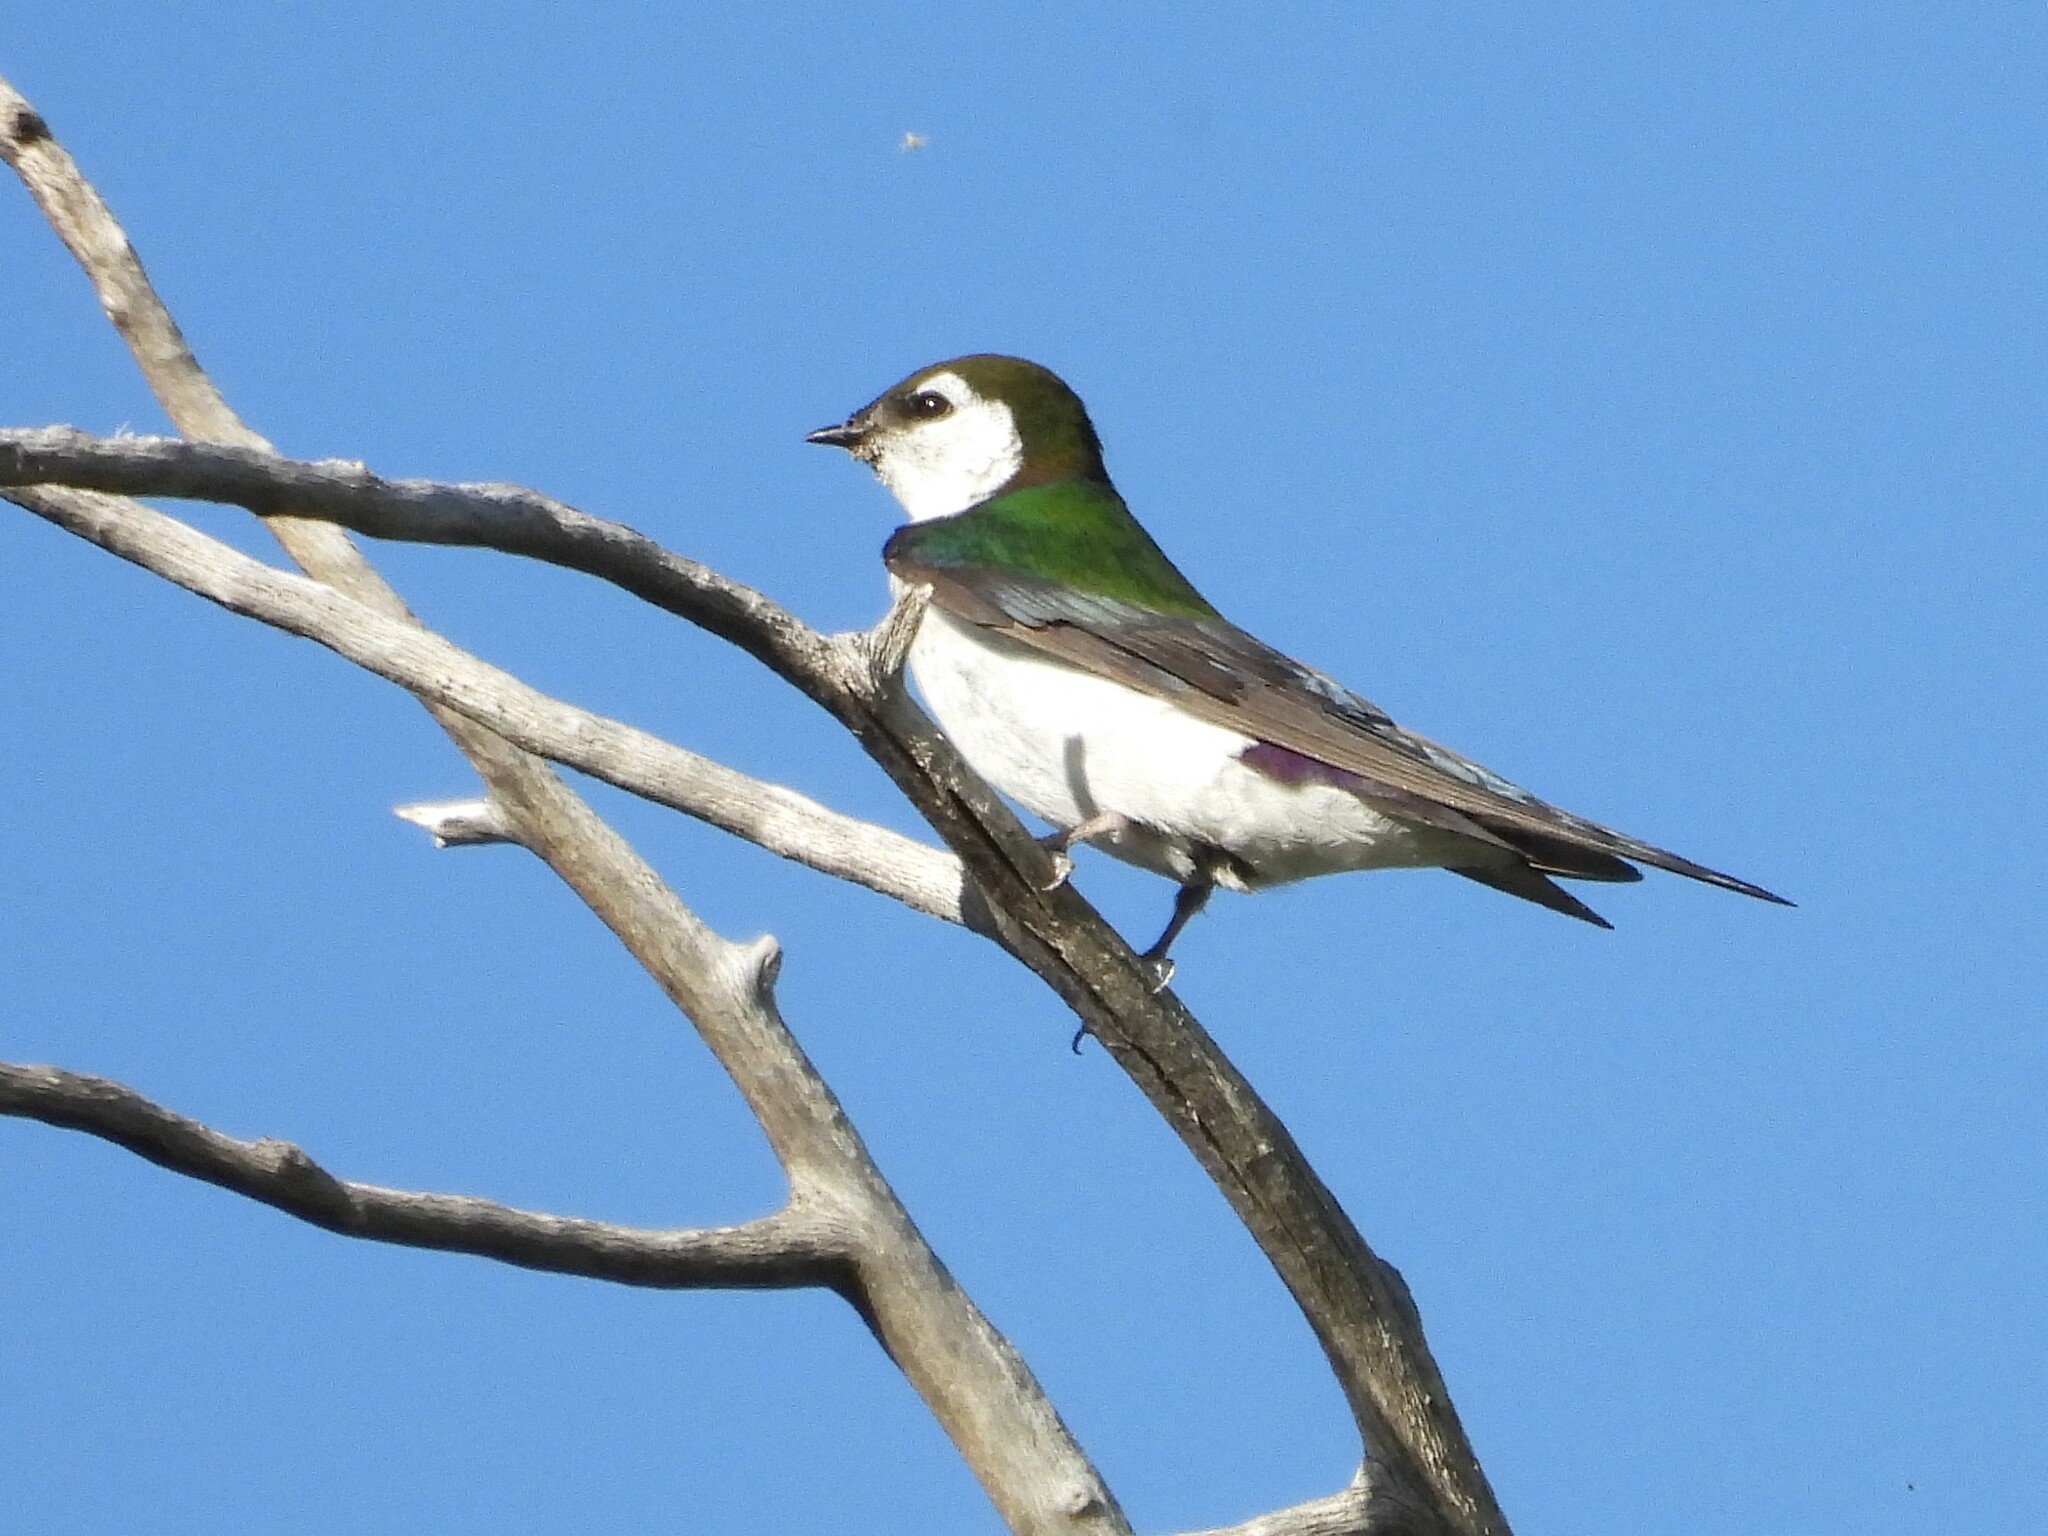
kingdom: Animalia
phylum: Chordata
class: Aves
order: Passeriformes
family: Hirundinidae
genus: Tachycineta
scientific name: Tachycineta thalassina
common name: Violet-green swallow
